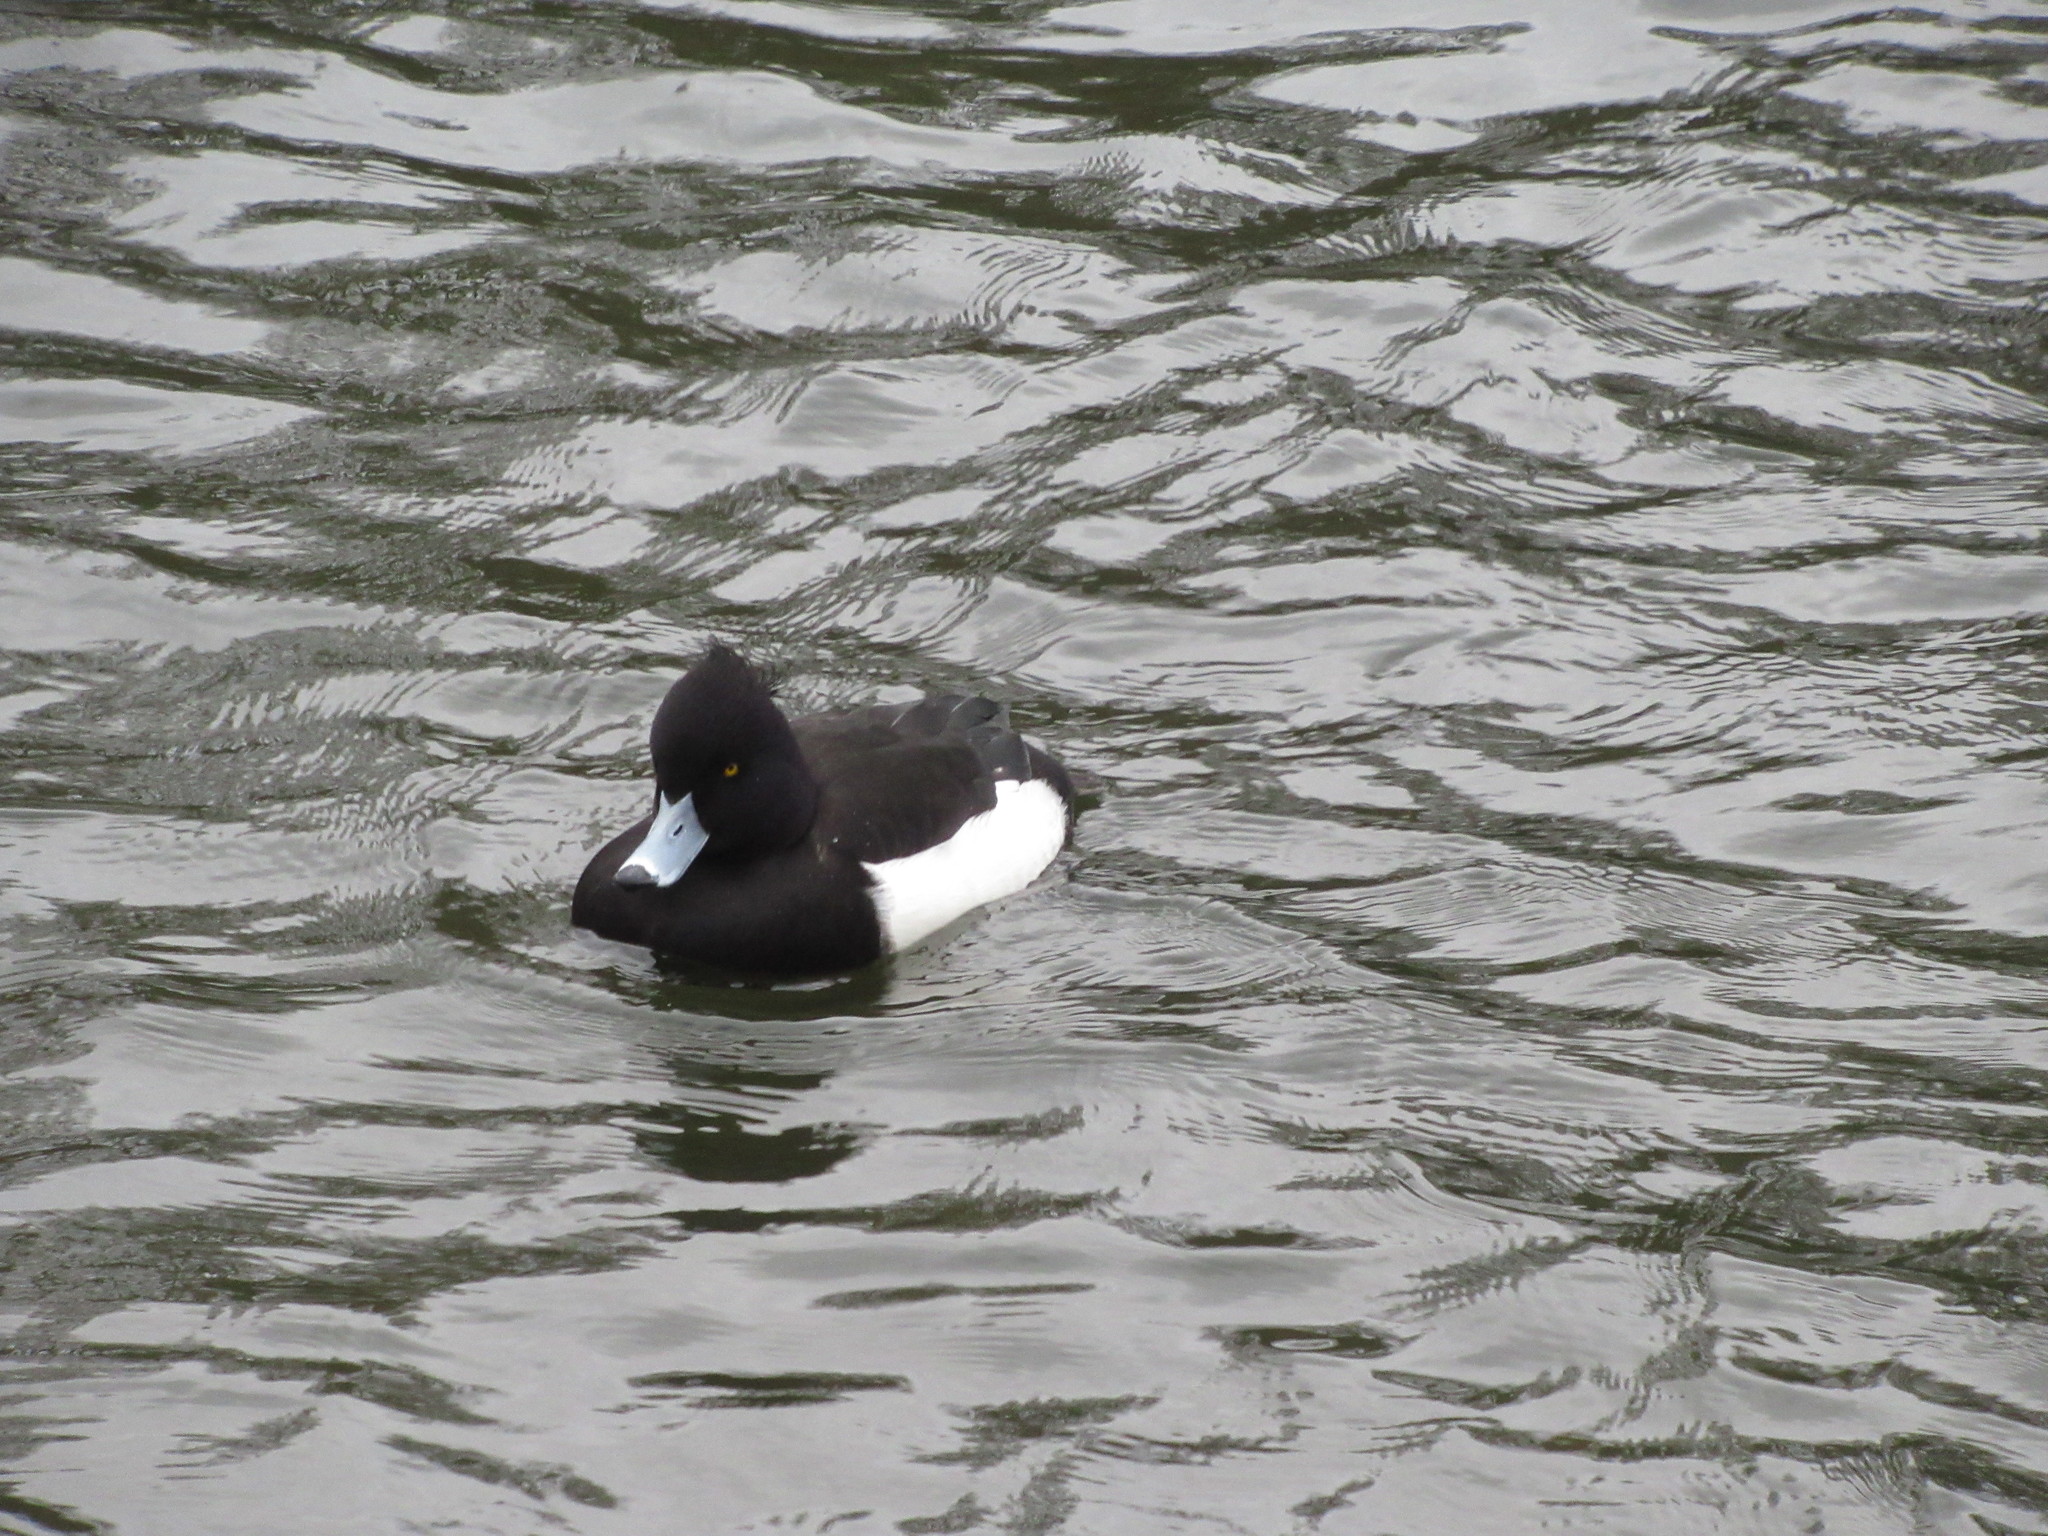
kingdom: Animalia
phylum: Chordata
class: Aves
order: Anseriformes
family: Anatidae
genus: Aythya
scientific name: Aythya fuligula
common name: Tufted duck
